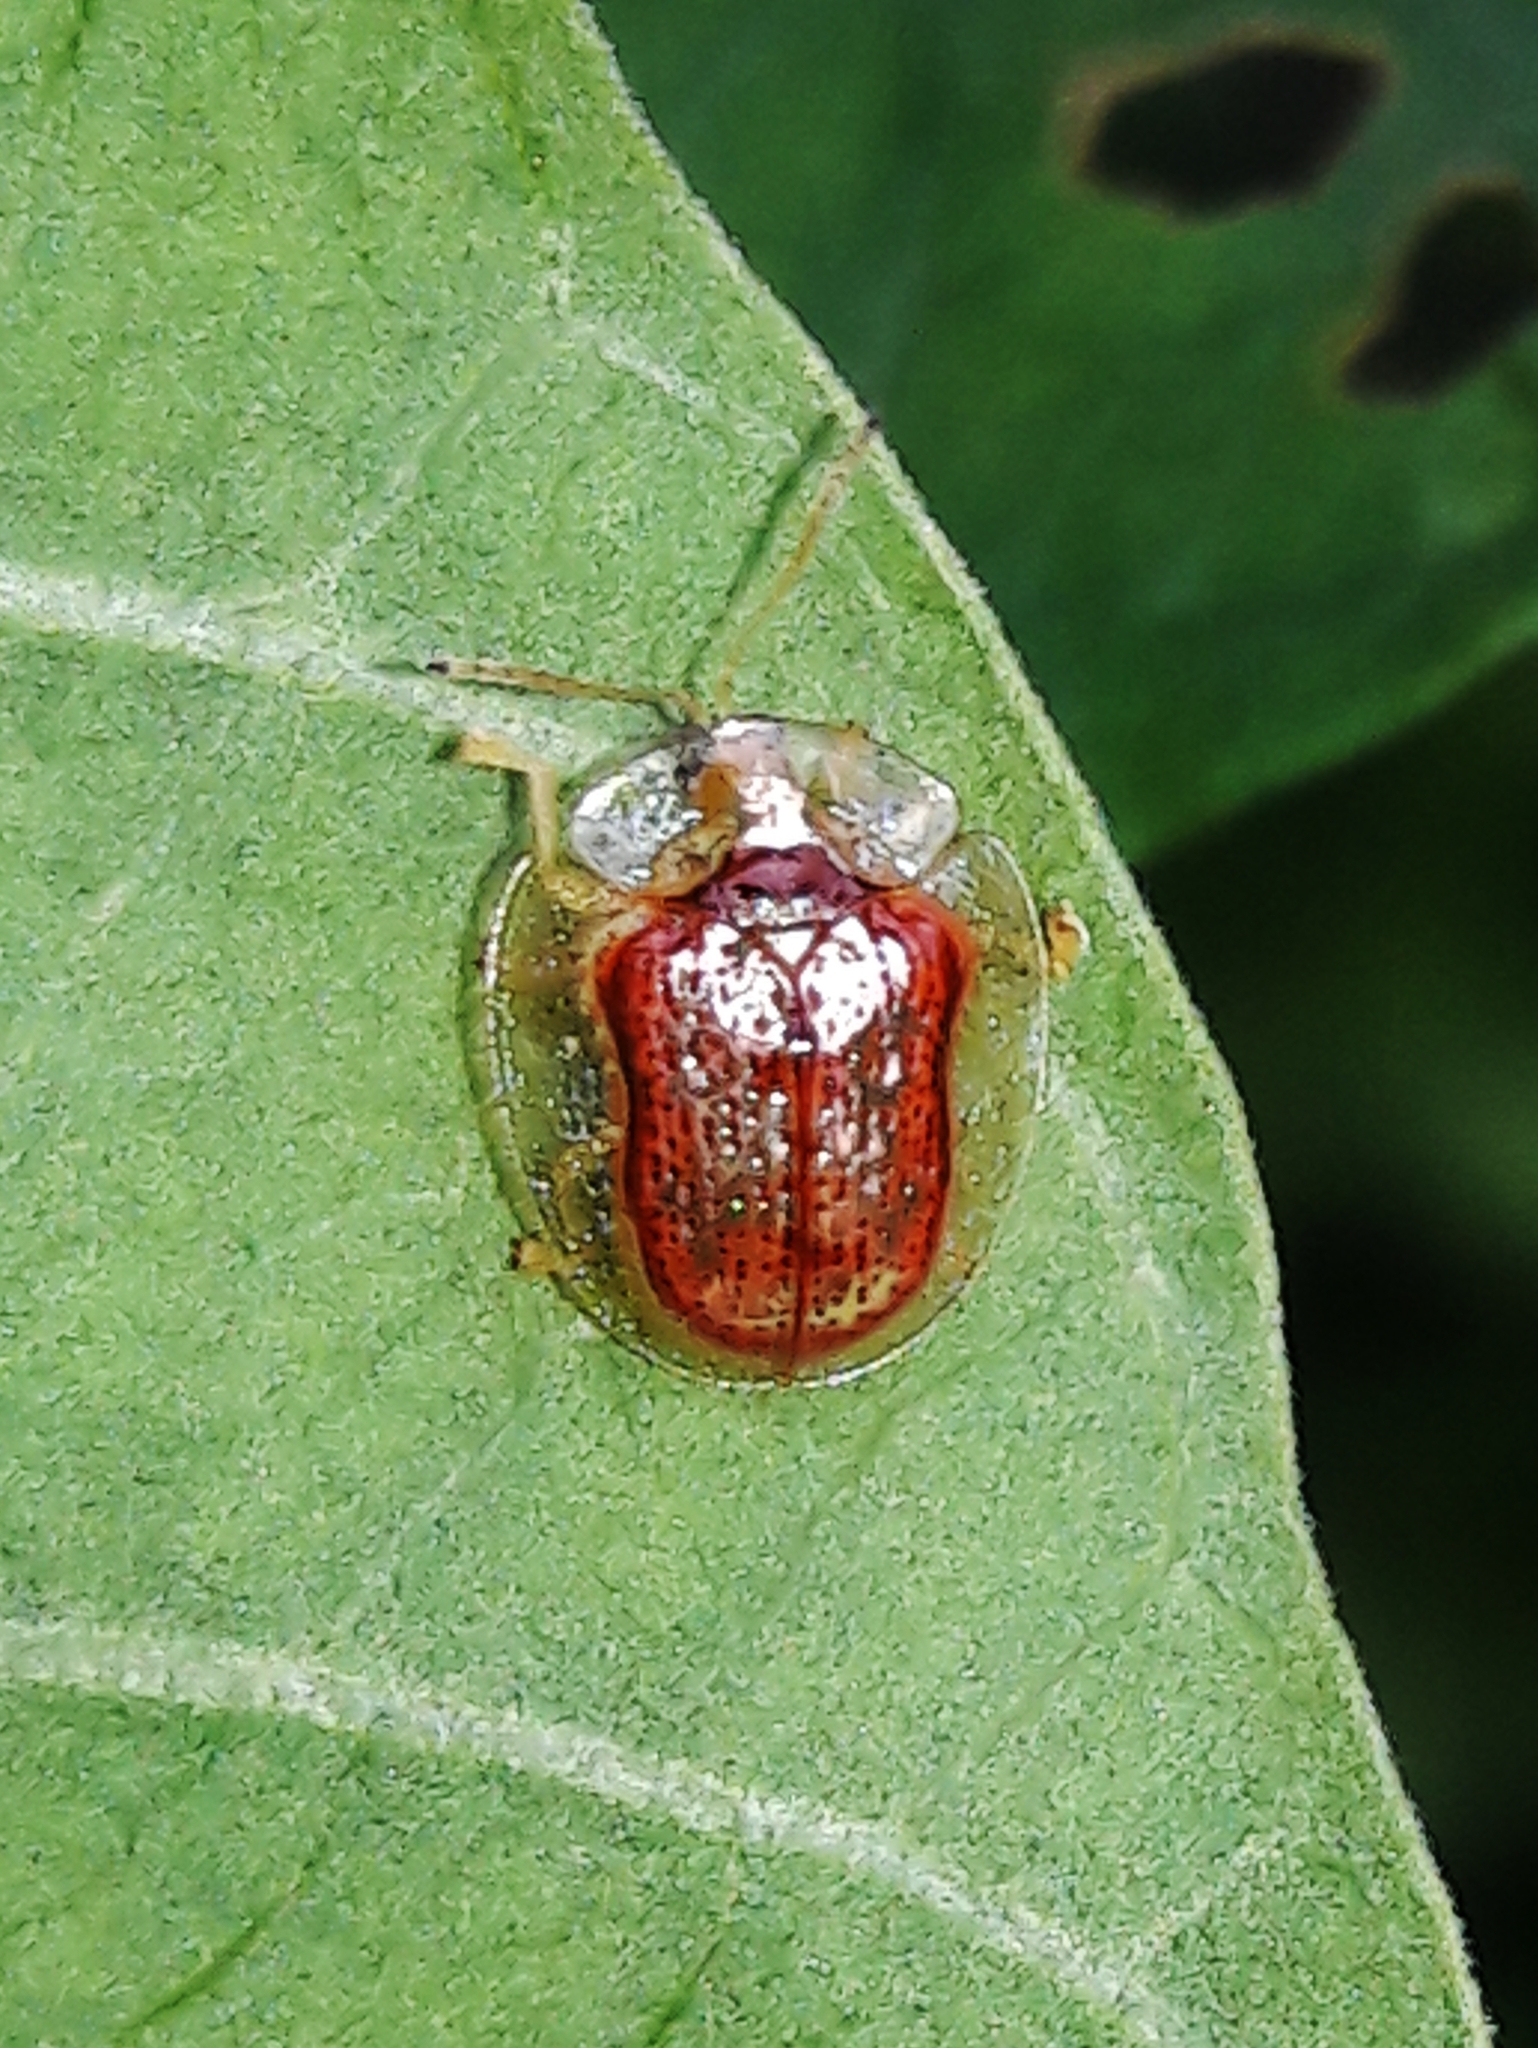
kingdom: Animalia
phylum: Arthropoda
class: Insecta
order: Coleoptera
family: Chrysomelidae
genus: Microctenochira
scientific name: Microctenochira quadrata
